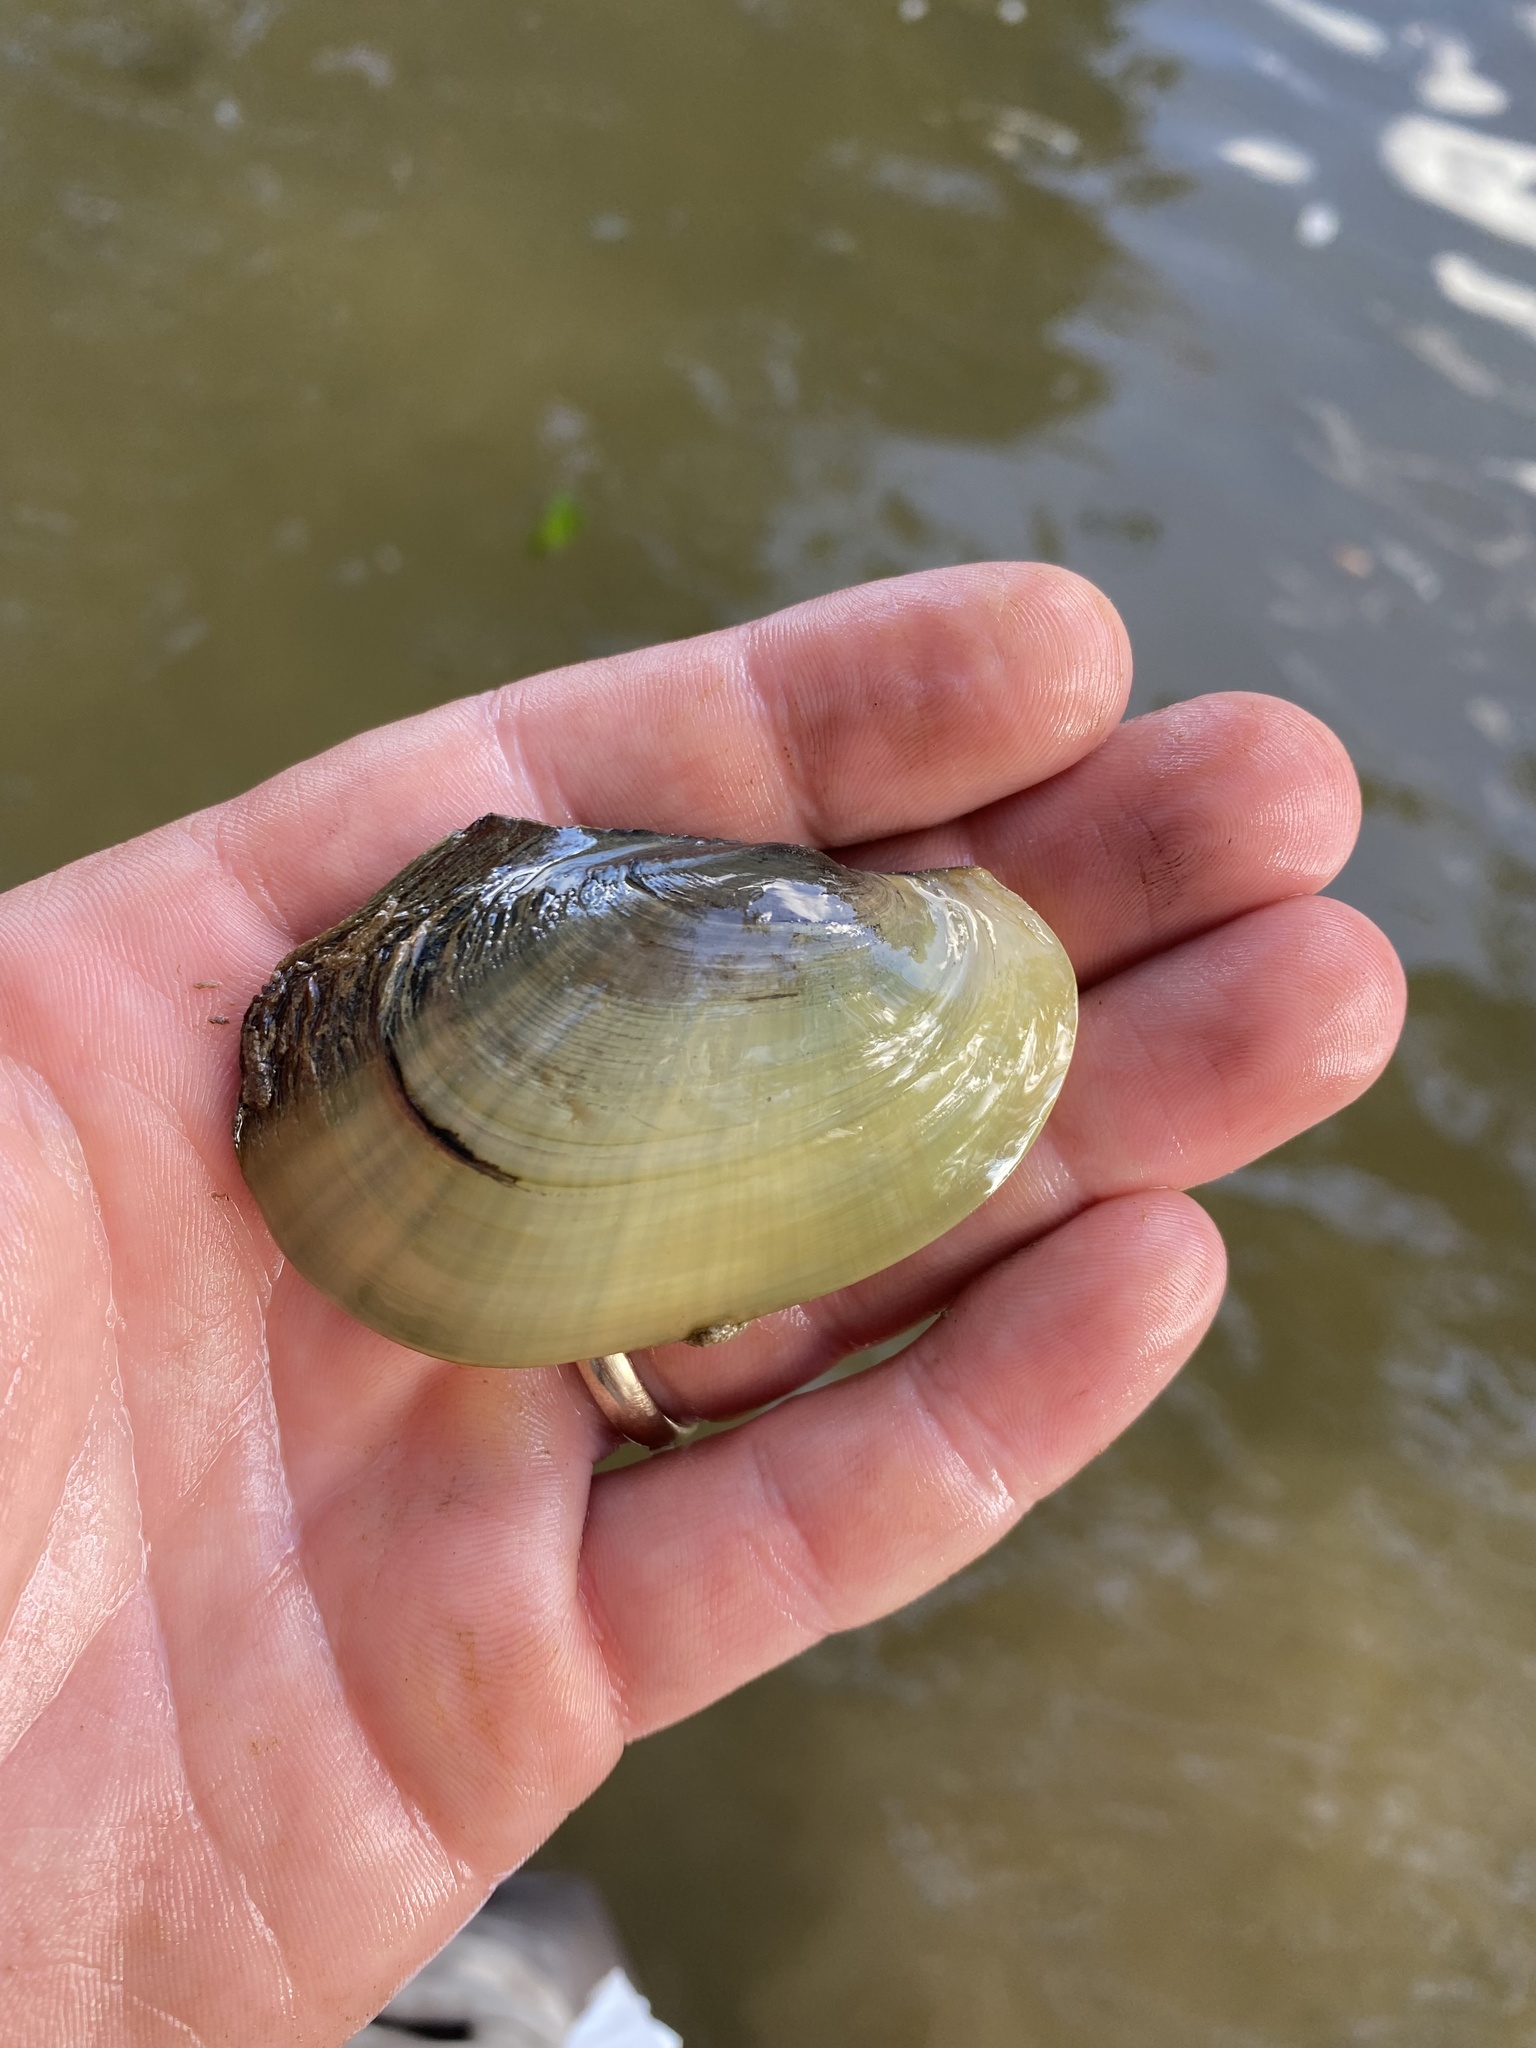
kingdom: Animalia
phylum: Mollusca
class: Bivalvia
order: Unionida
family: Unionidae
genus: Potamilus
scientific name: Potamilus fragilis
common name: Fragile papershell
